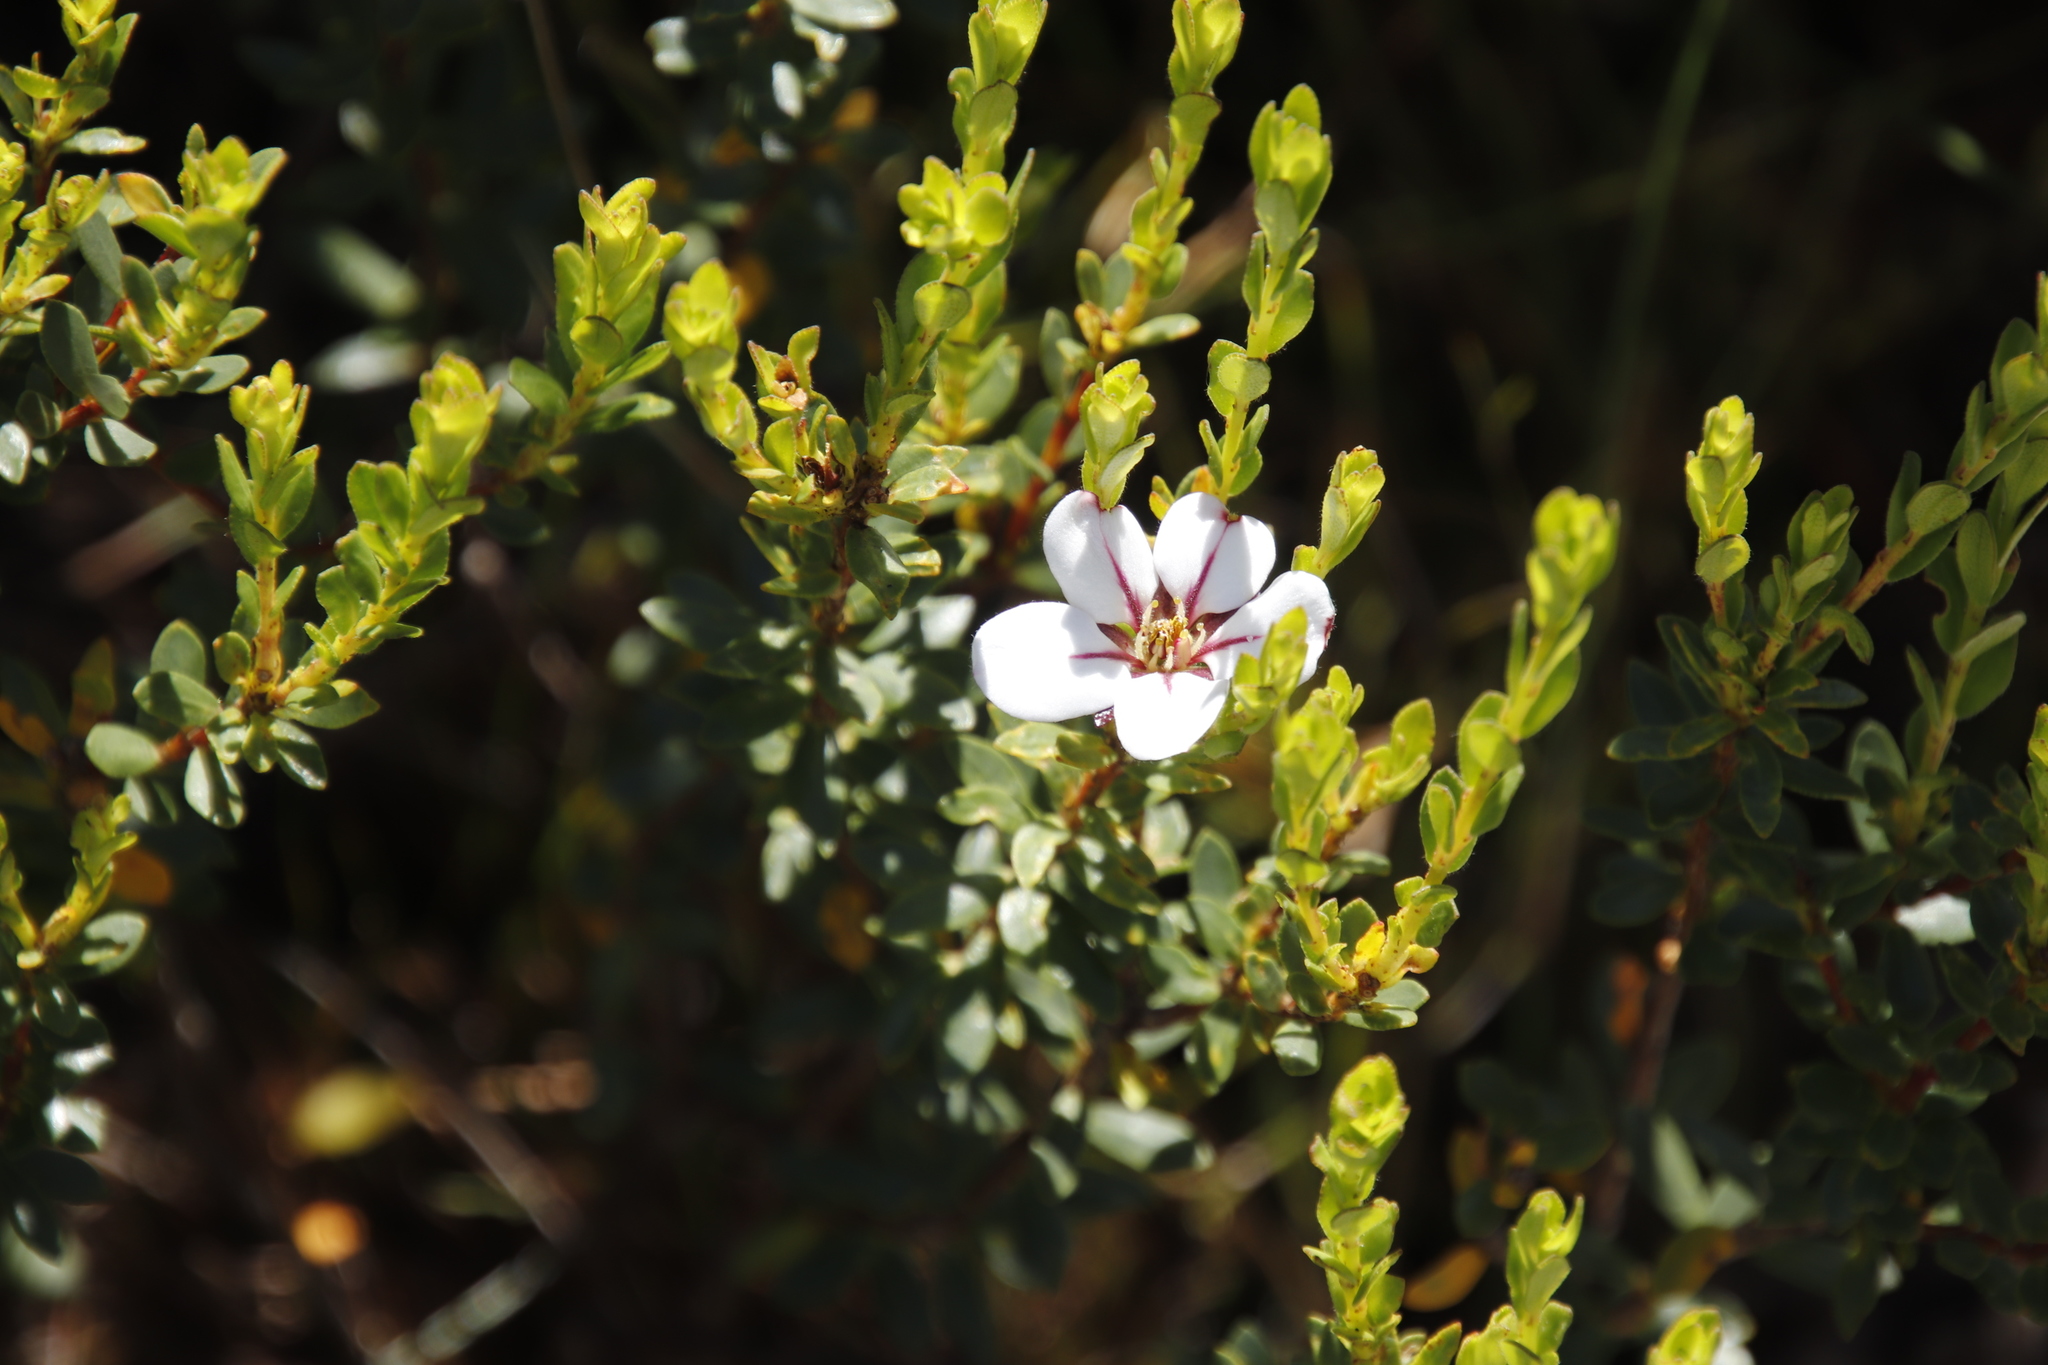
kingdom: Plantae
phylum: Tracheophyta
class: Magnoliopsida
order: Sapindales
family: Rutaceae
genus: Adenandra
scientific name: Adenandra villosa
